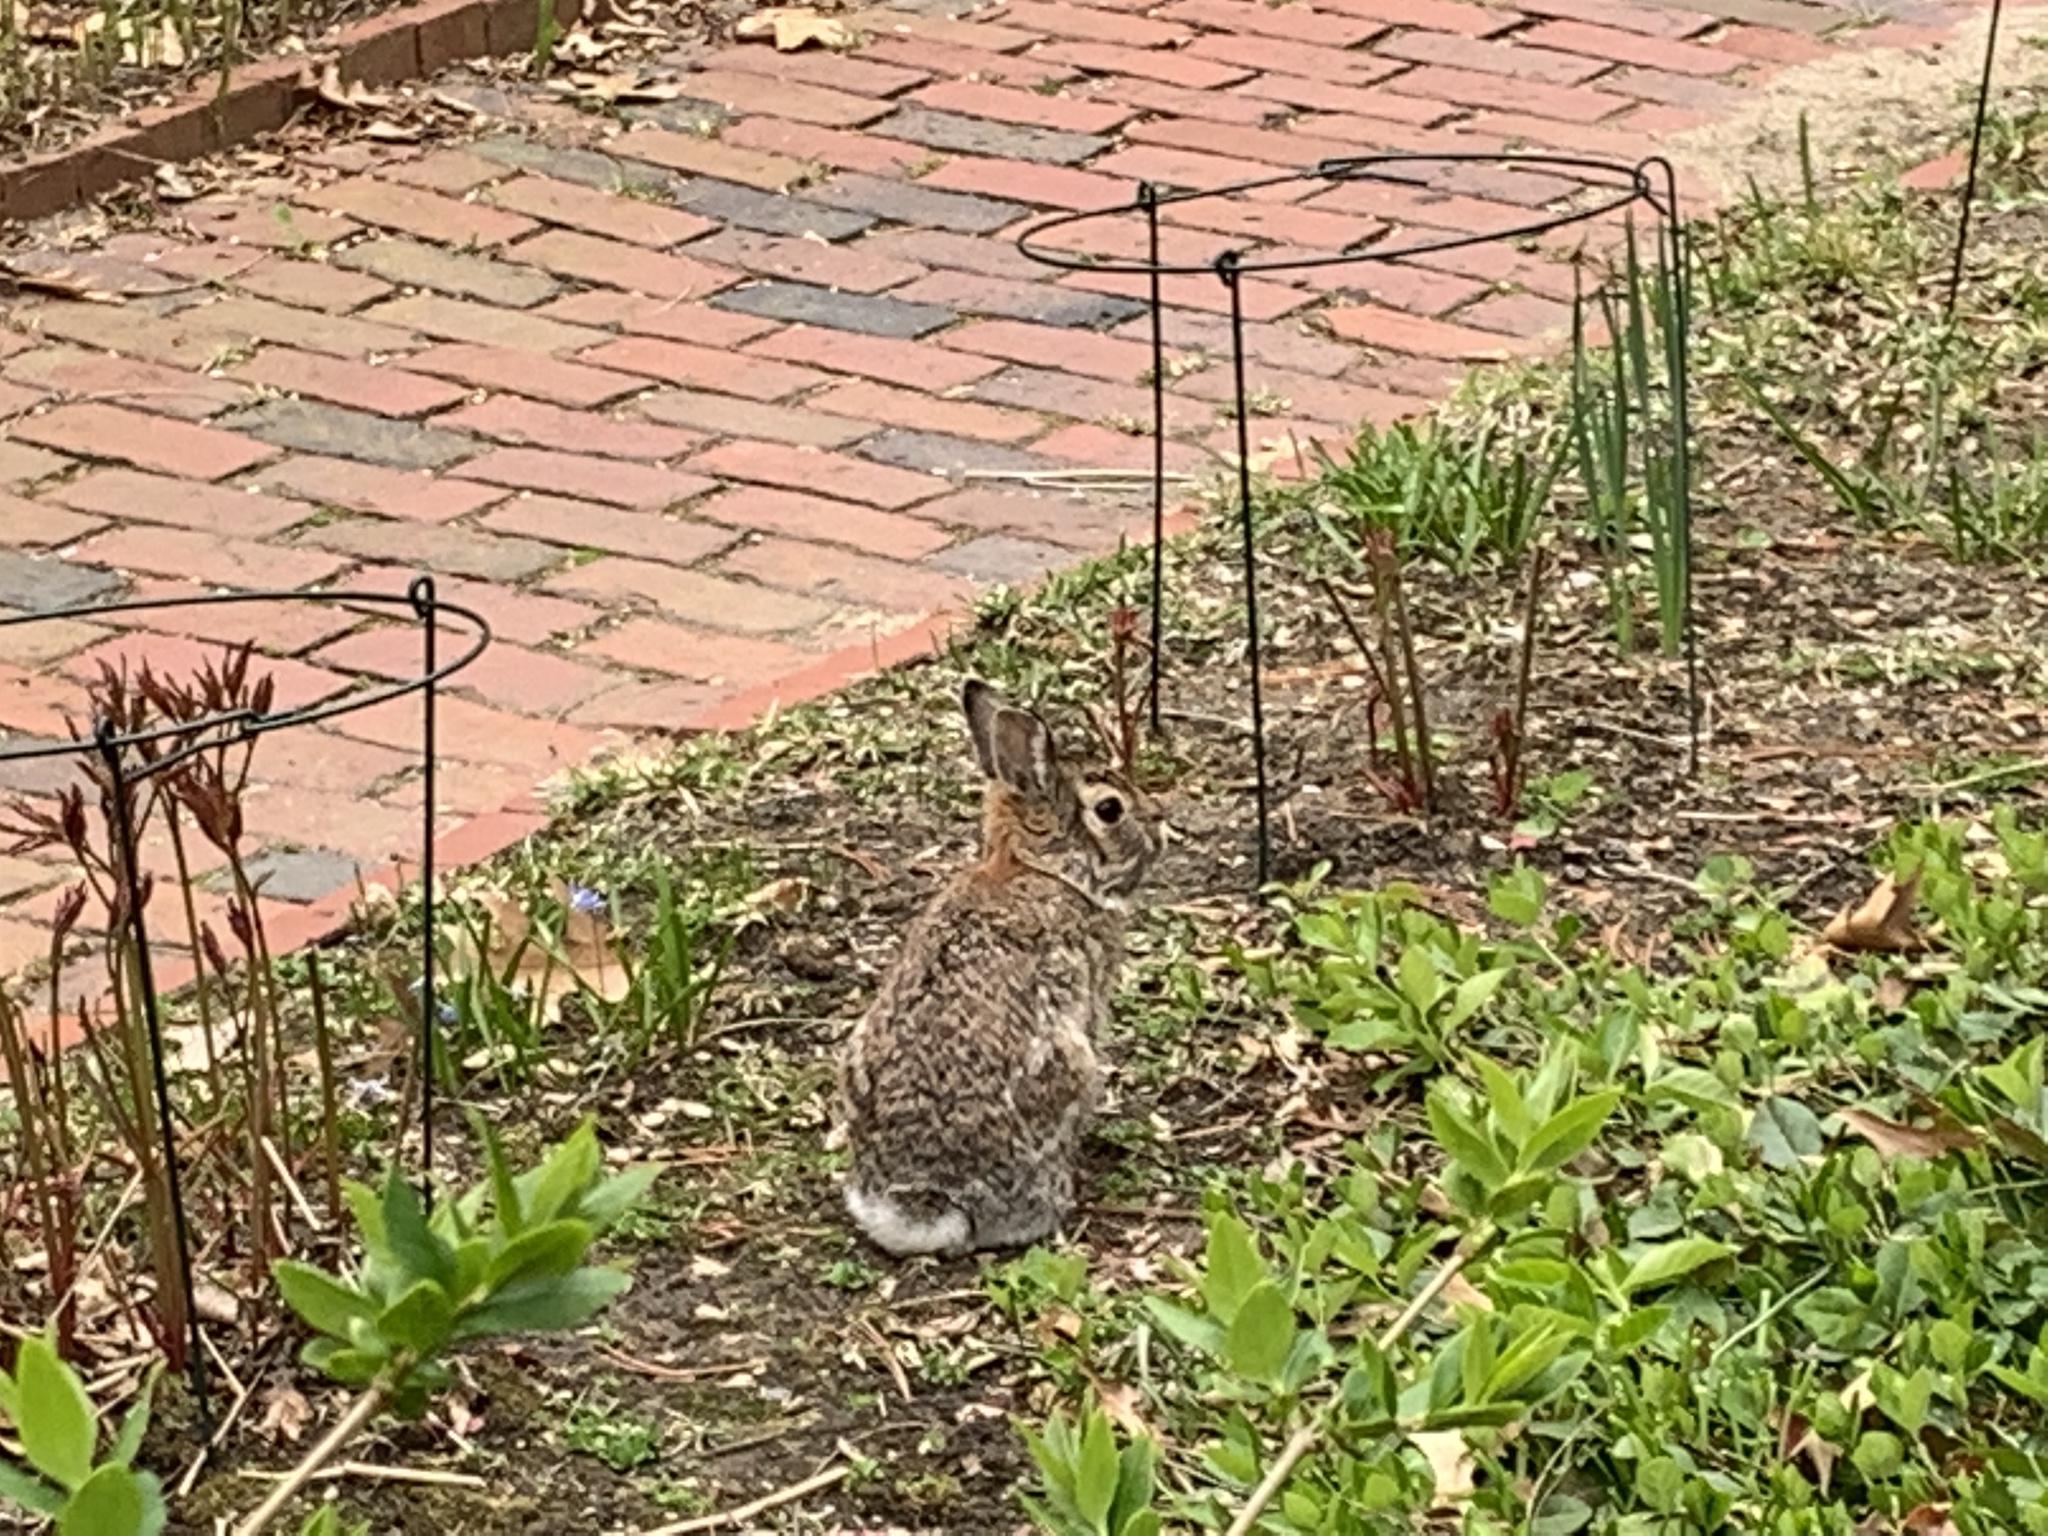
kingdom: Animalia
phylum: Chordata
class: Mammalia
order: Lagomorpha
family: Leporidae
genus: Sylvilagus
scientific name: Sylvilagus floridanus
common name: Eastern cottontail
